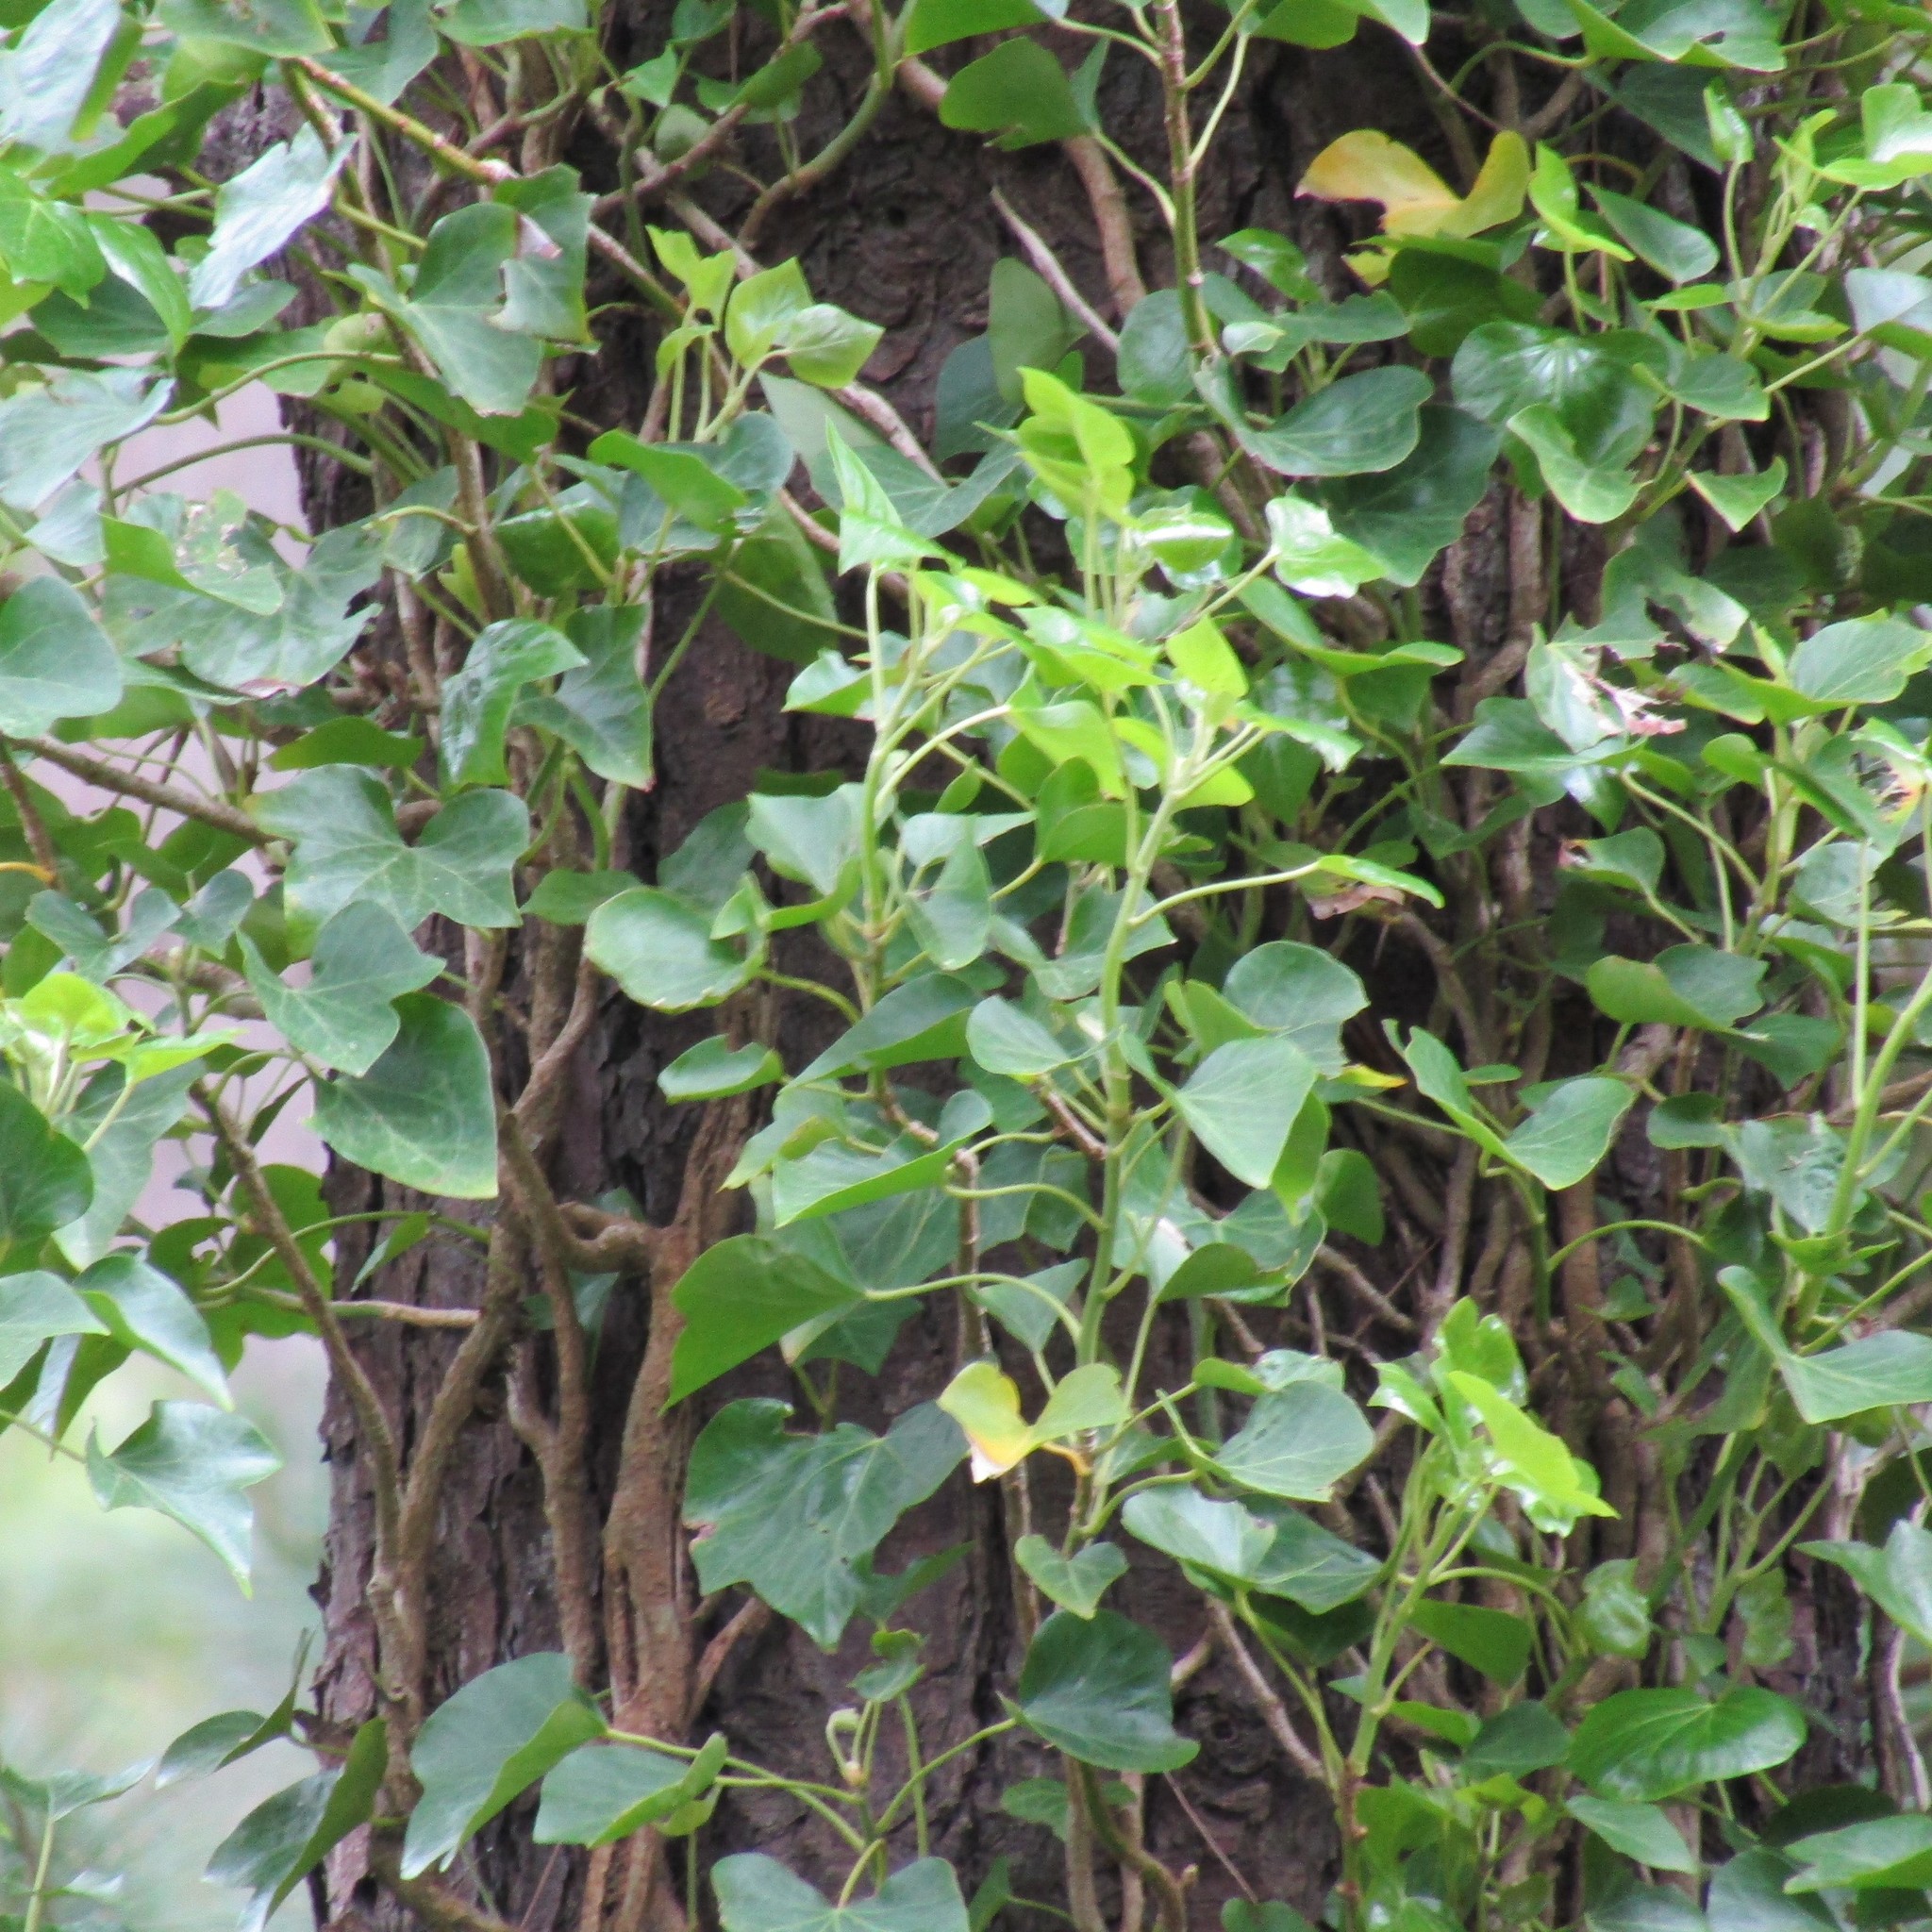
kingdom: Plantae
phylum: Tracheophyta
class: Magnoliopsida
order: Apiales
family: Araliaceae
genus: Hedera
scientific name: Hedera helix
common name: Ivy
